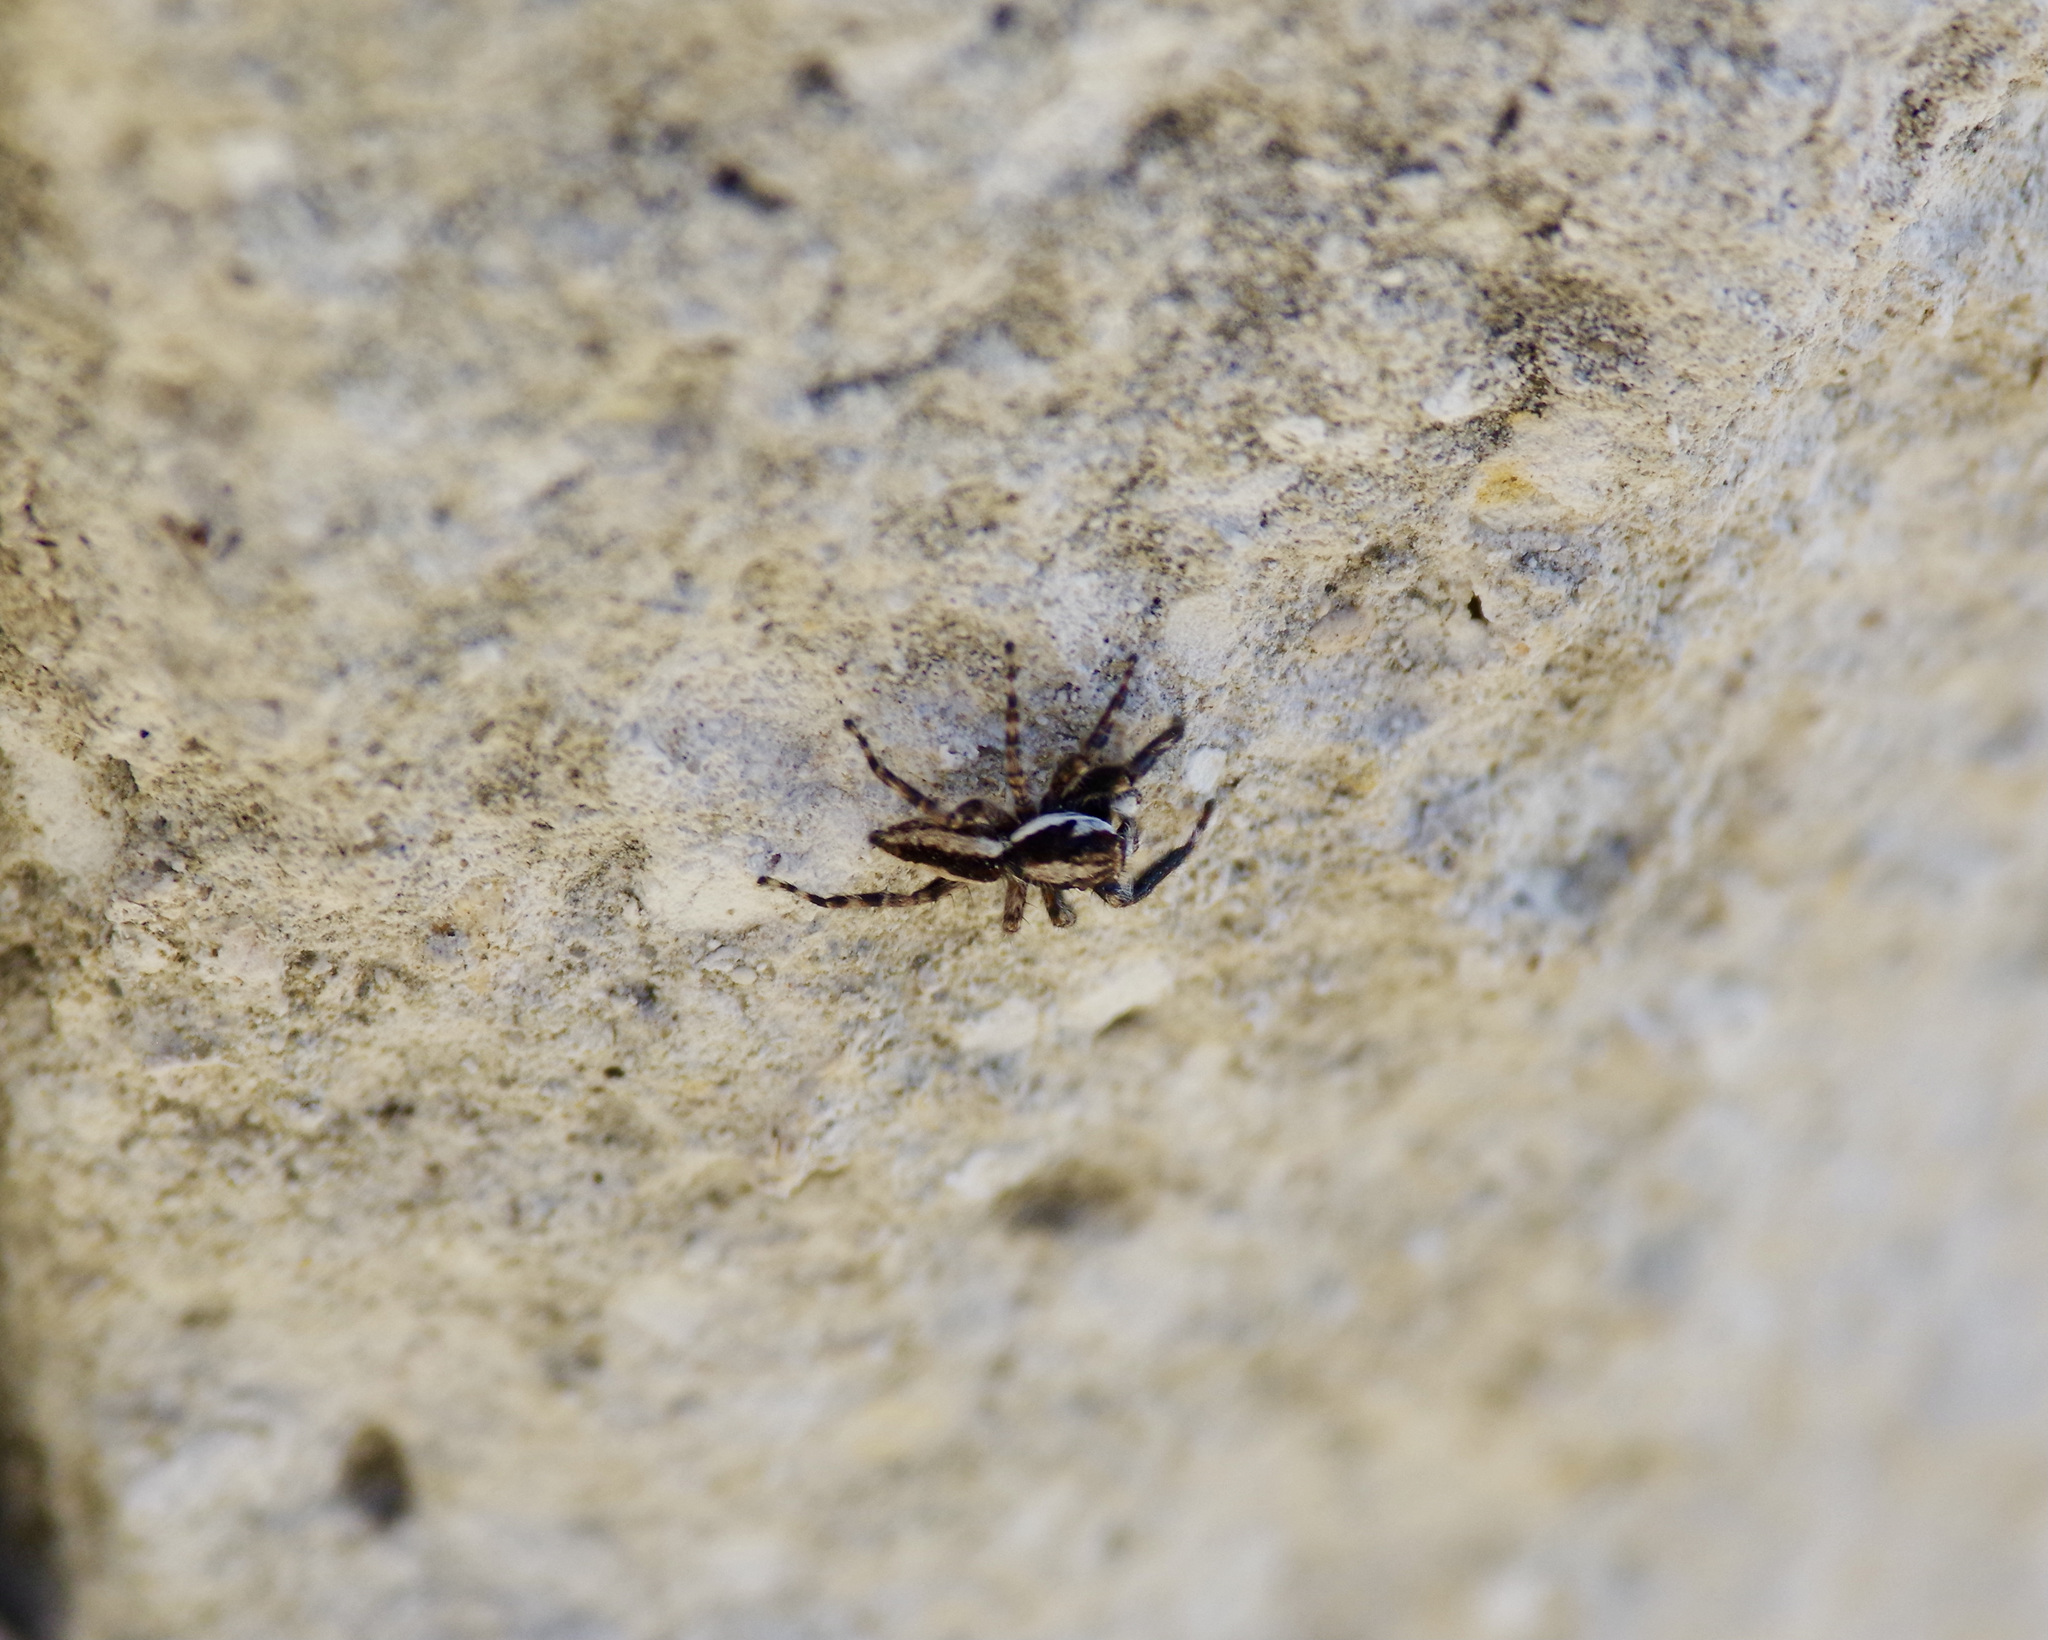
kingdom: Animalia
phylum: Arthropoda
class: Arachnida
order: Araneae
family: Salticidae
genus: Menemerus
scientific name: Menemerus bivittatus
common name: Gray wall jumper
